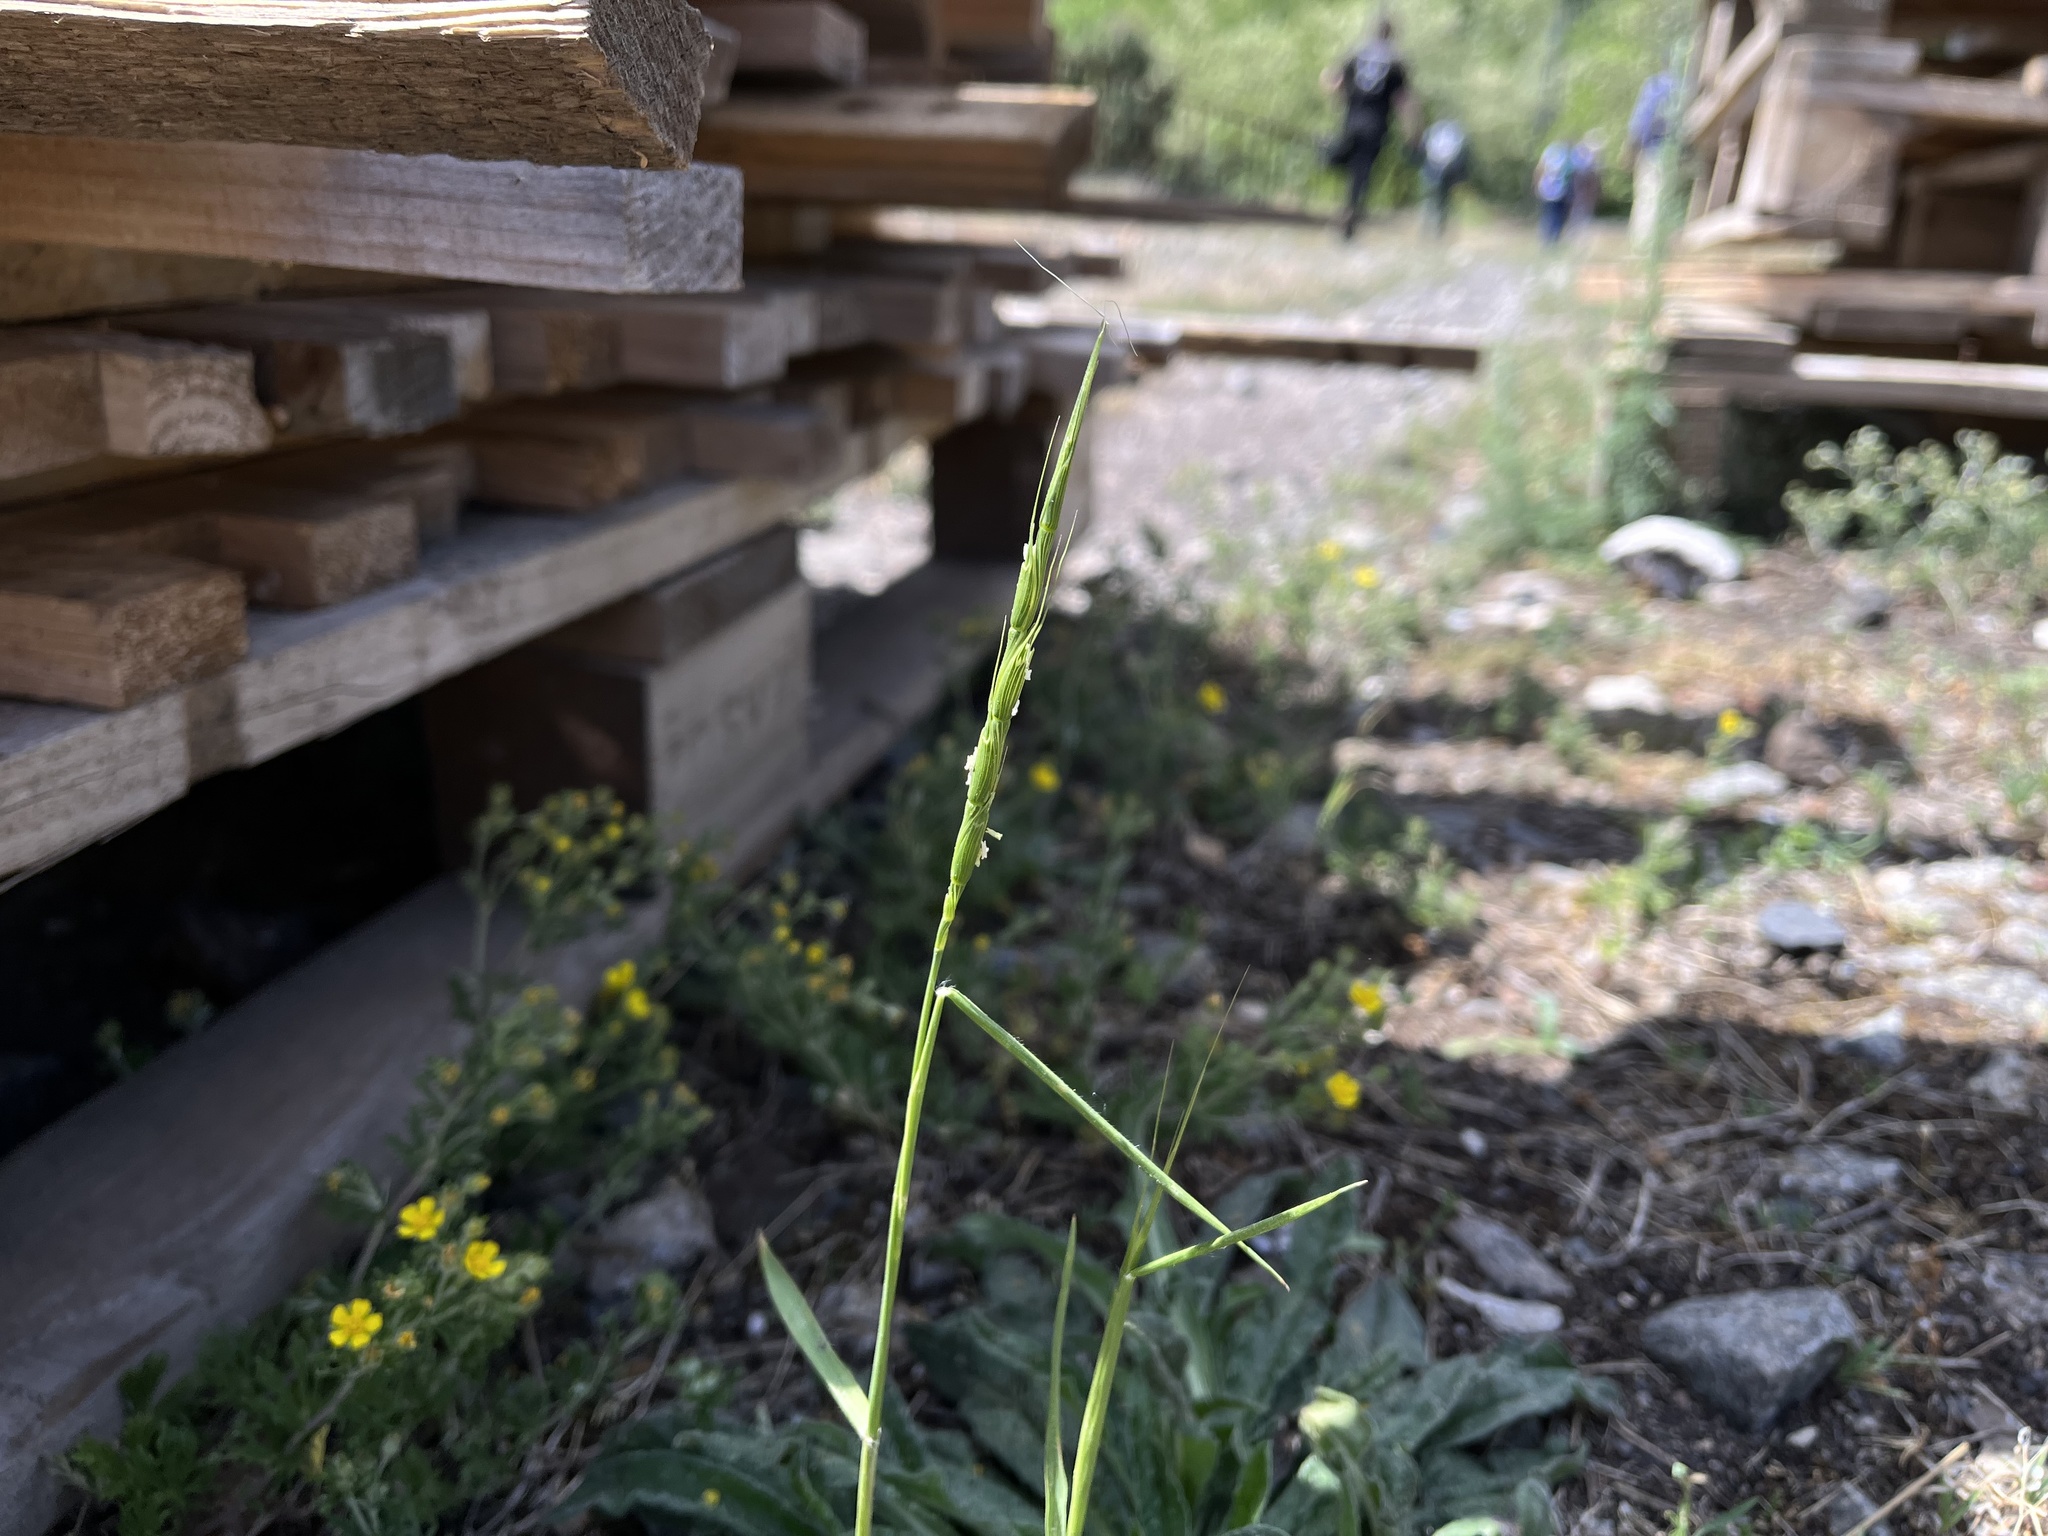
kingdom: Plantae
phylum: Tracheophyta
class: Liliopsida
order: Poales
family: Poaceae
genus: Aegilops
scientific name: Aegilops cylindrica
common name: Jointed goatgrass
